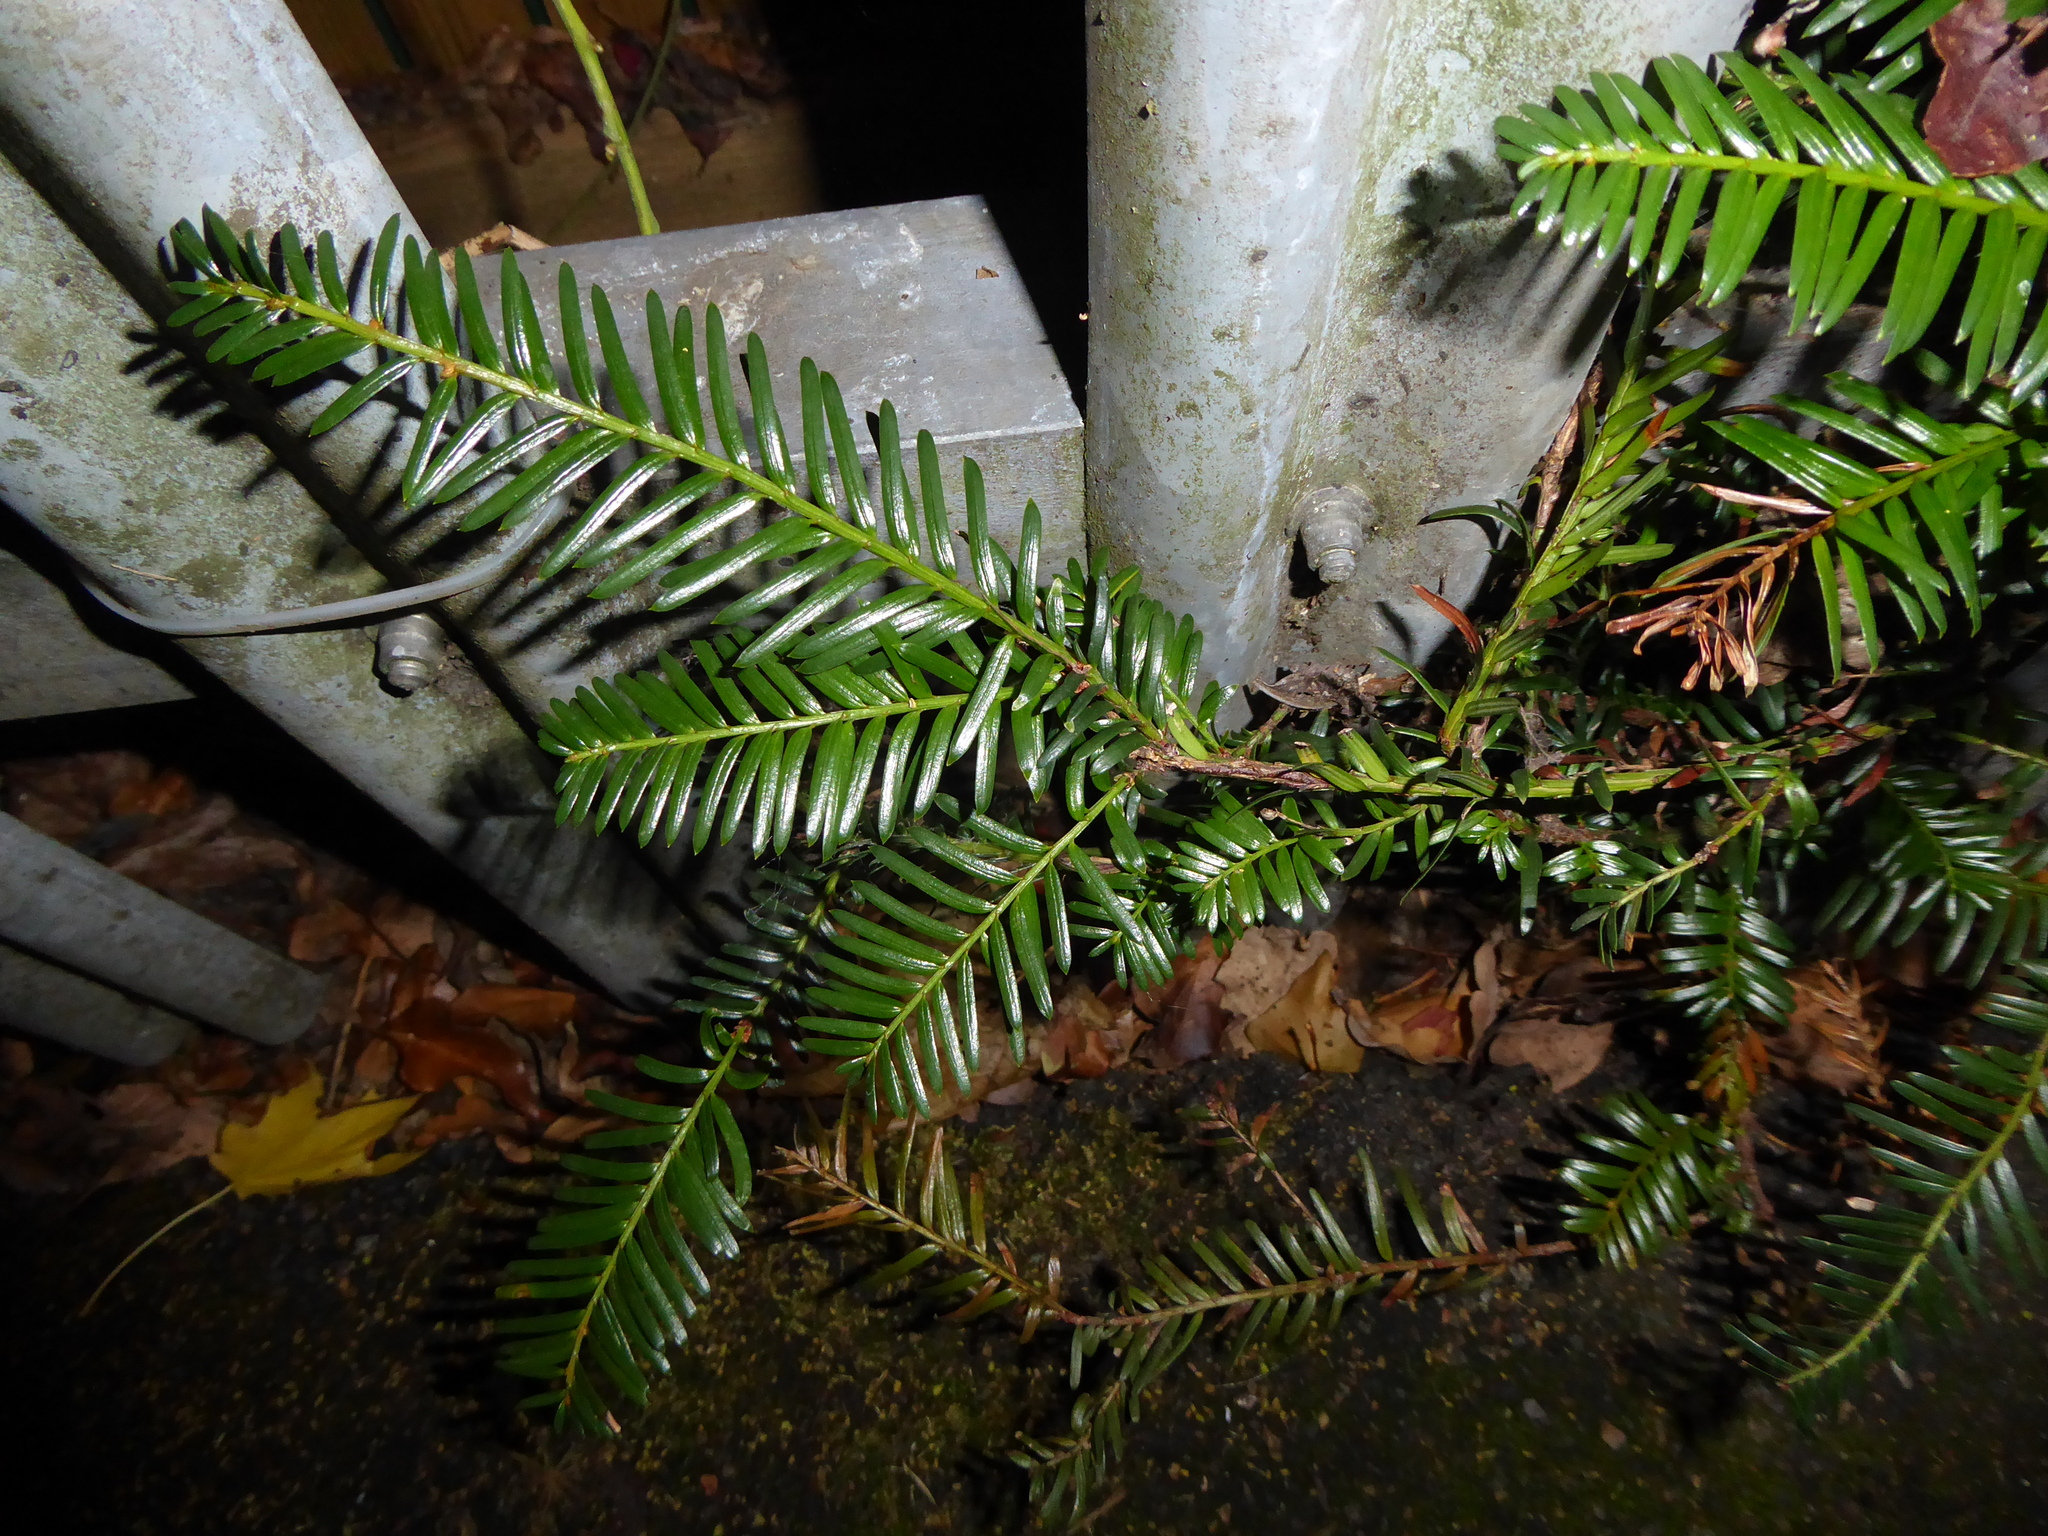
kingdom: Plantae
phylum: Tracheophyta
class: Pinopsida
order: Pinales
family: Taxaceae
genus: Taxus
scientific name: Taxus baccata
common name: Yew
